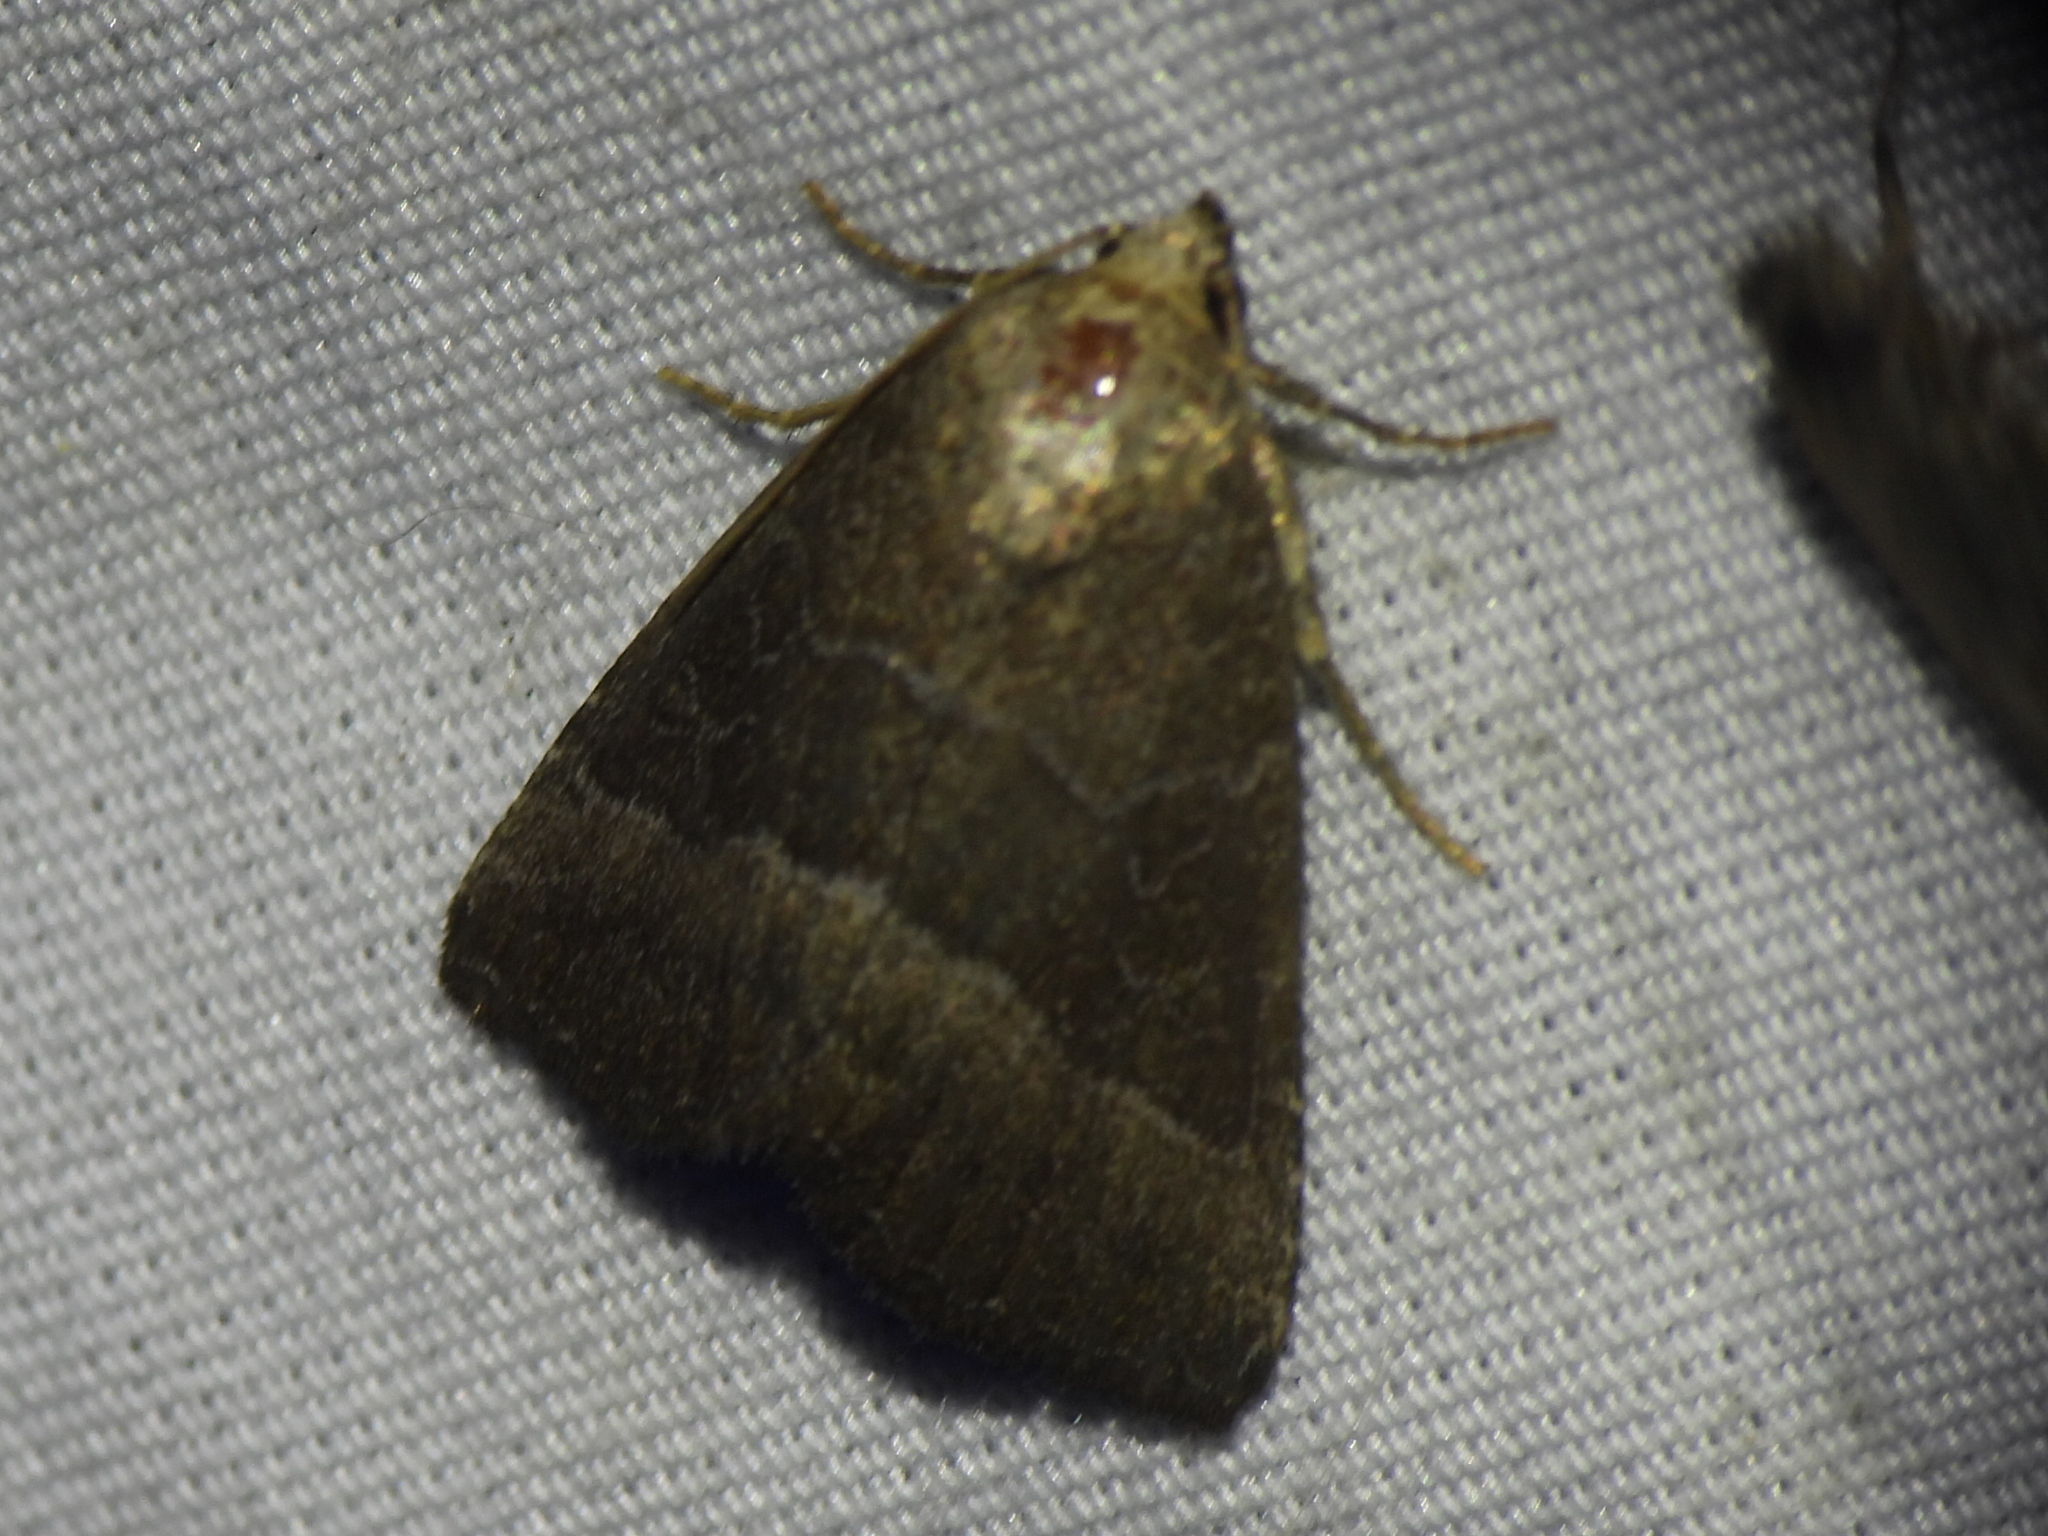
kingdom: Animalia
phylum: Arthropoda
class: Insecta
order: Lepidoptera
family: Noctuidae
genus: Ogdoconta
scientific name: Ogdoconta cinereola
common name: Common pinkband
